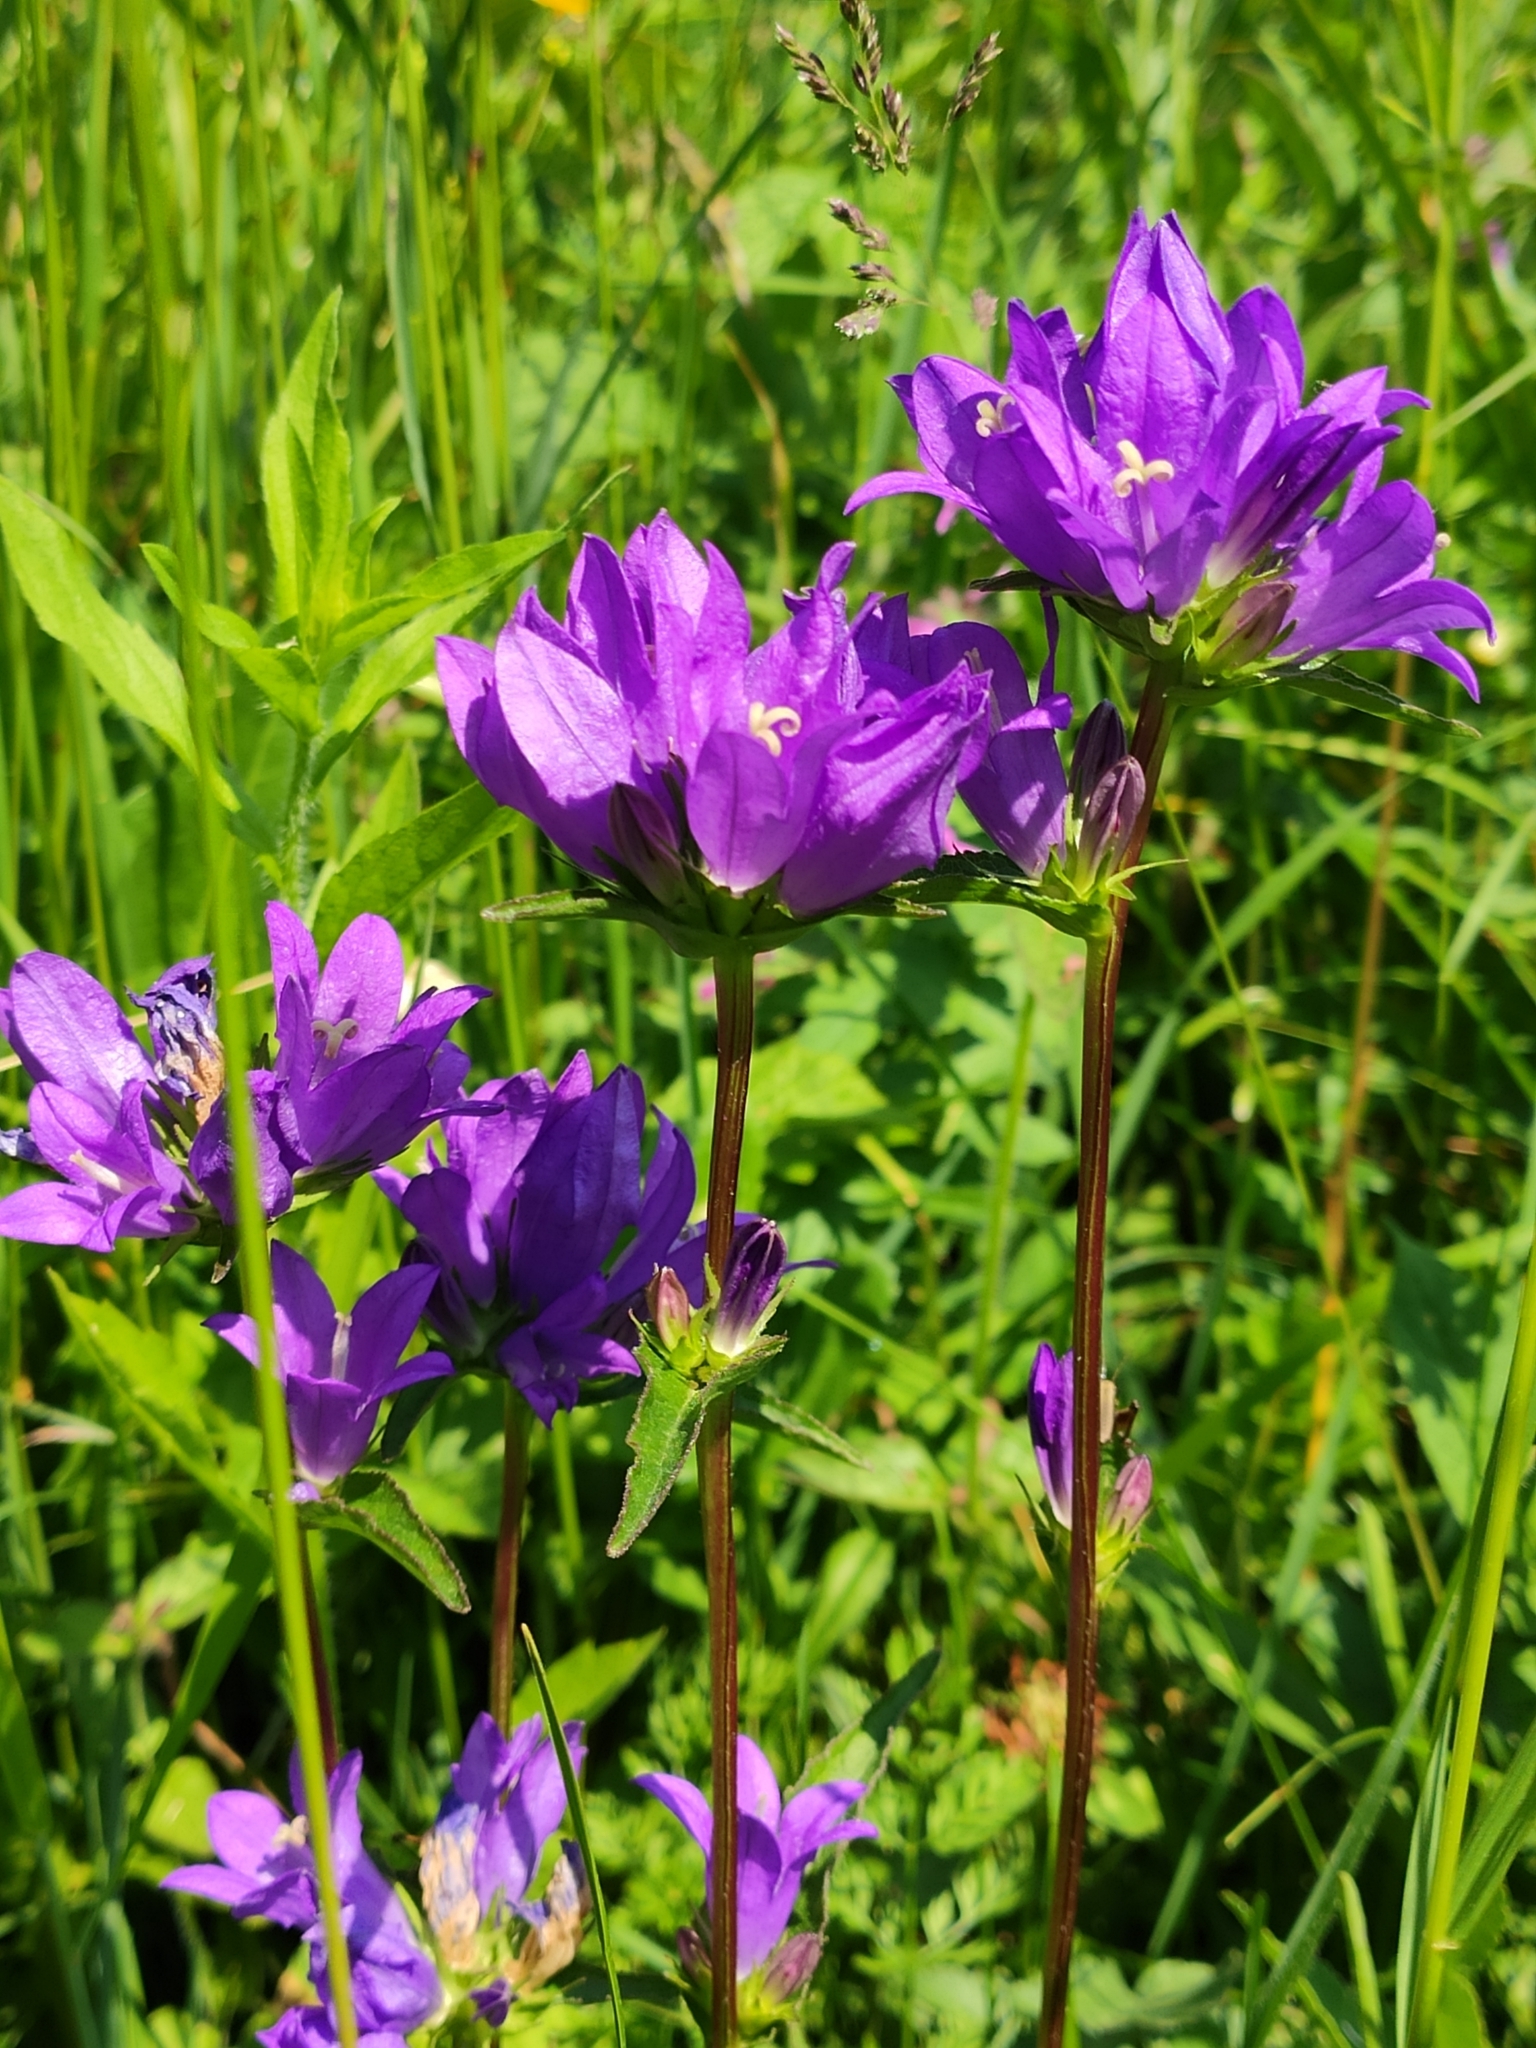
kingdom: Plantae
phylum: Tracheophyta
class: Magnoliopsida
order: Asterales
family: Campanulaceae
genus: Campanula
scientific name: Campanula glomerata
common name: Clustered bellflower
